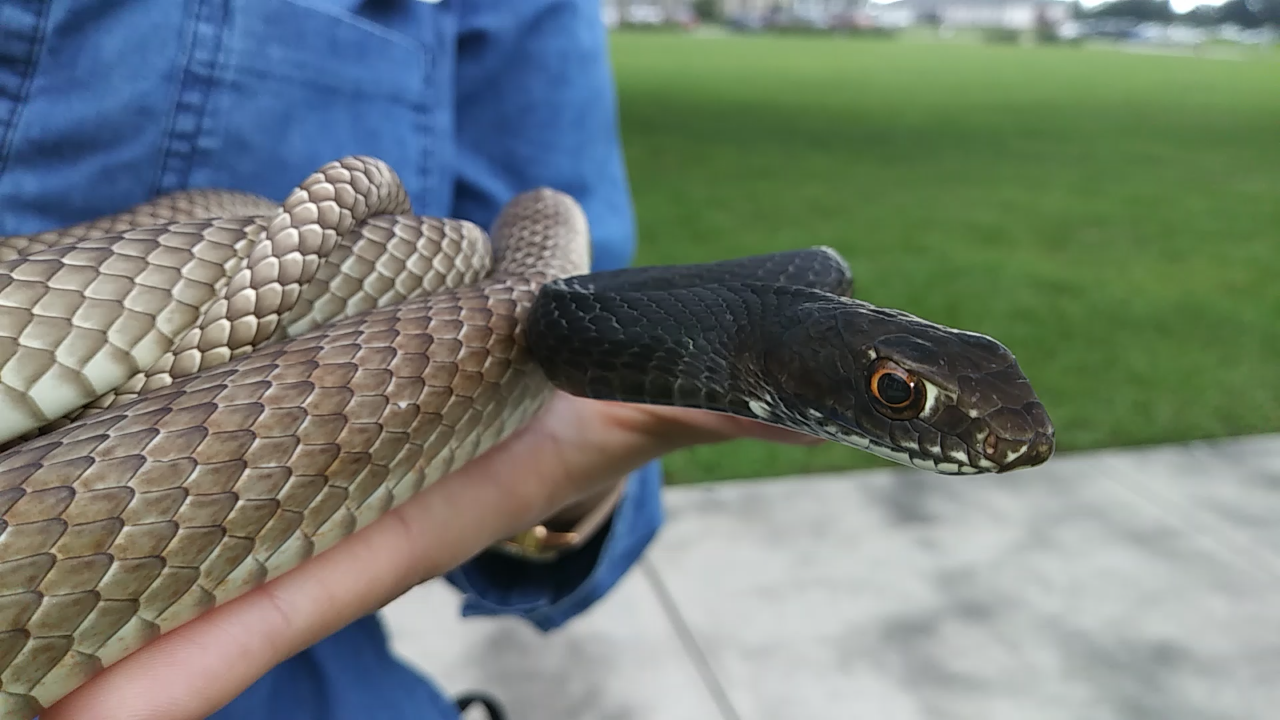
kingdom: Animalia
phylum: Chordata
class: Squamata
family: Colubridae
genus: Masticophis
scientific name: Masticophis flagellum
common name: Coachwhip
